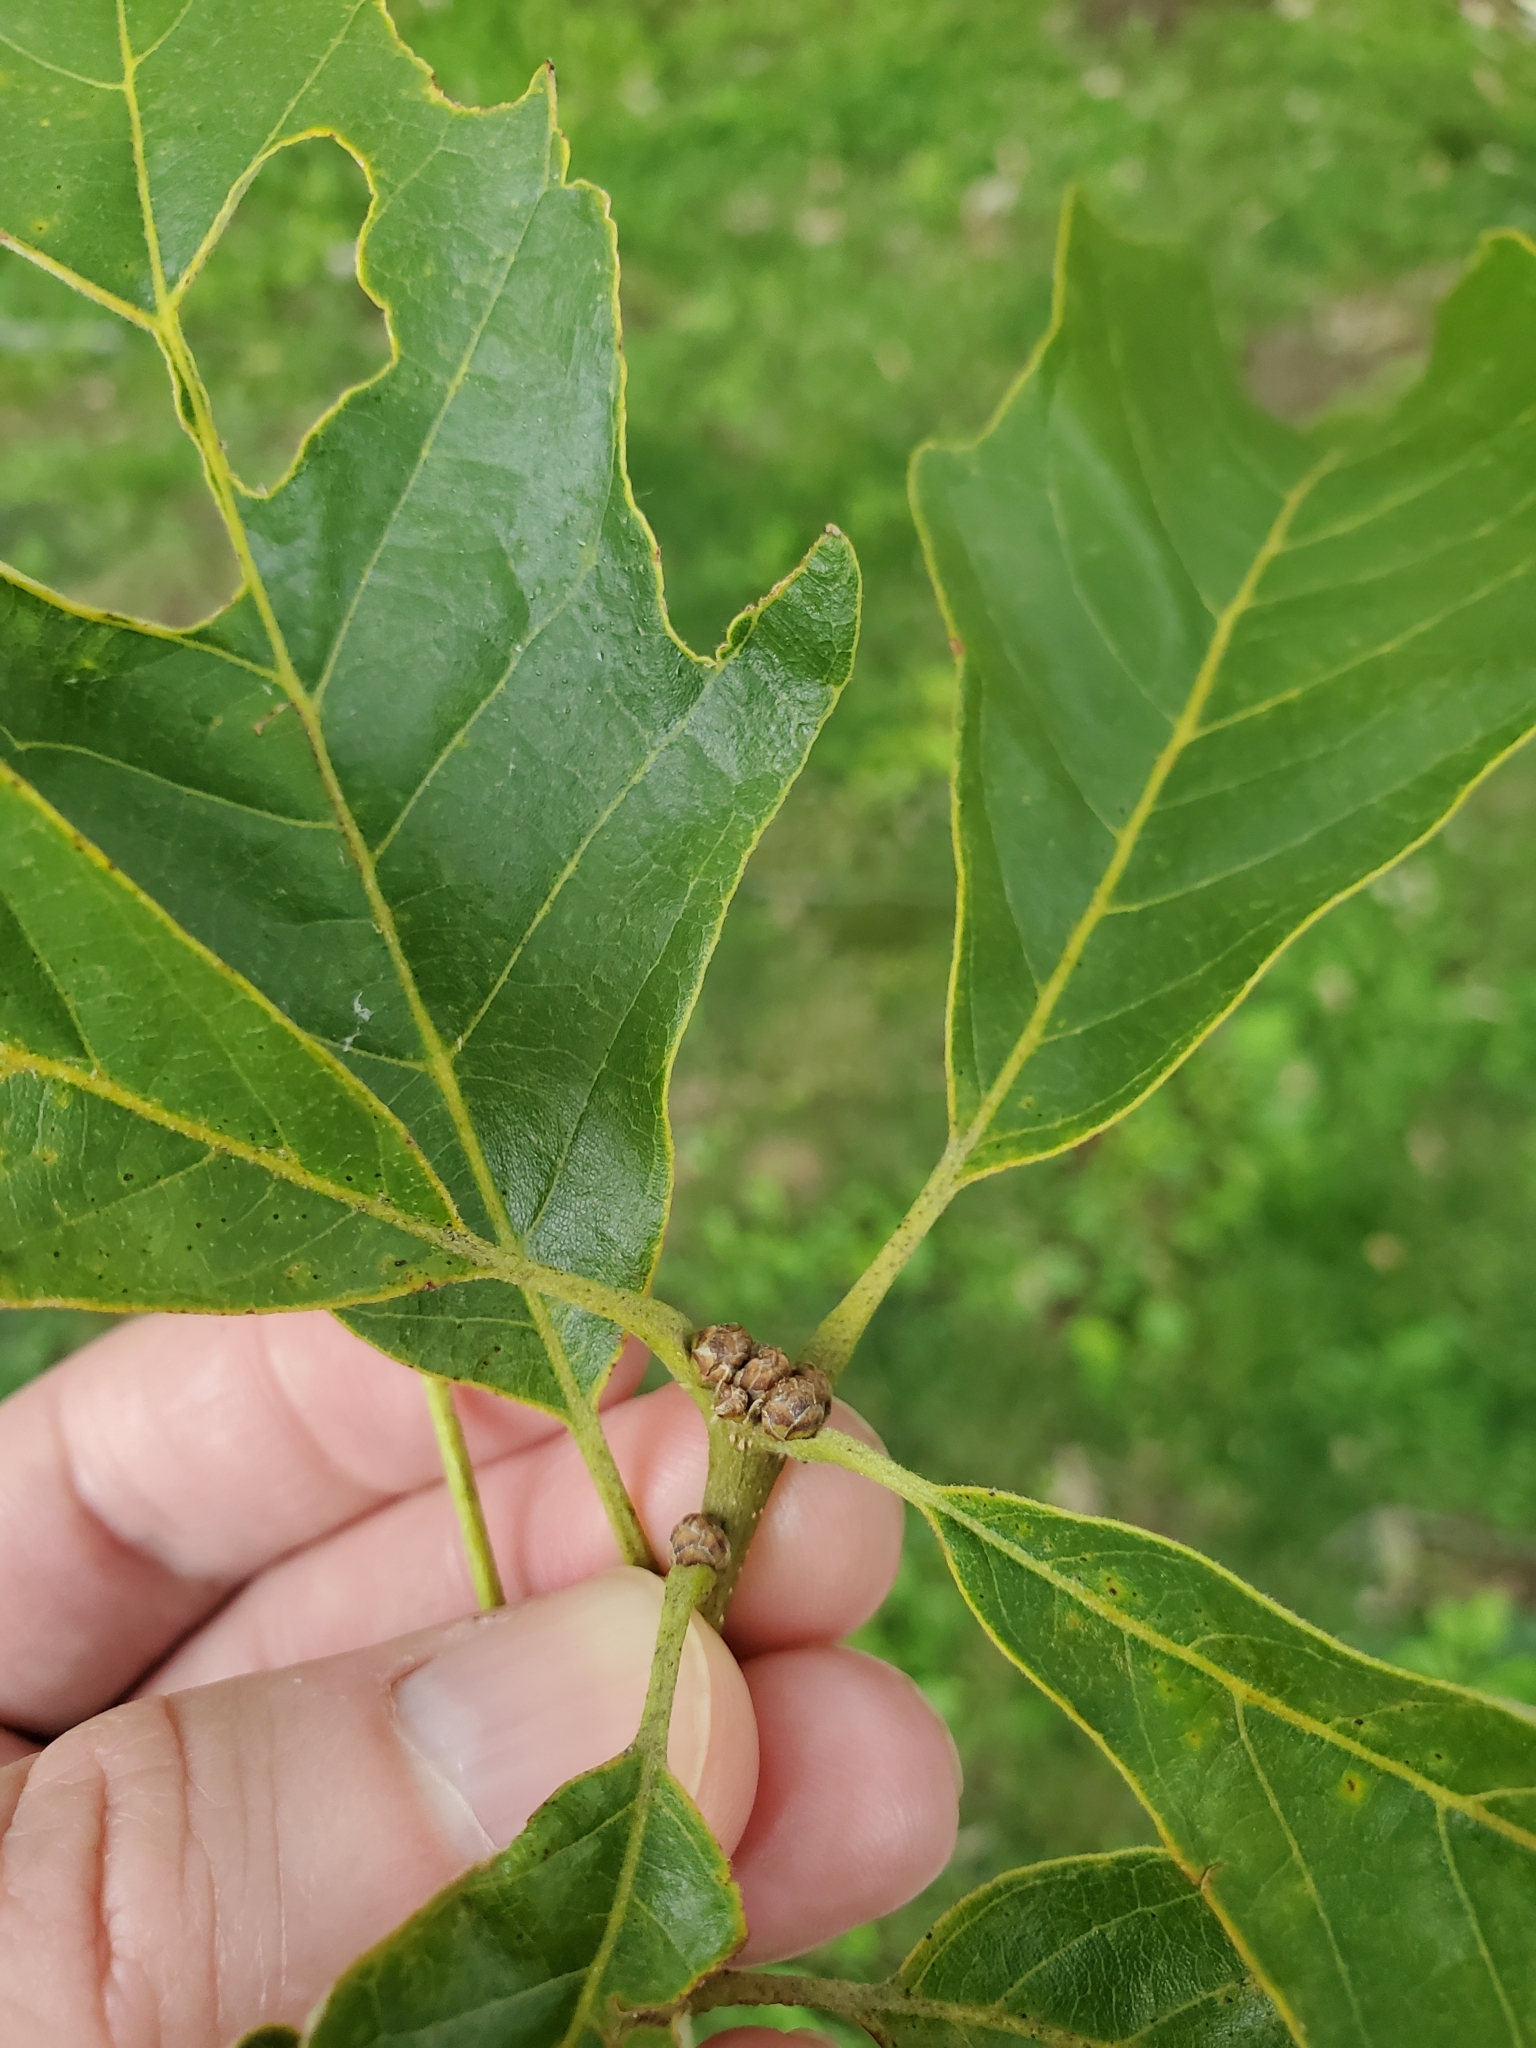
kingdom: Plantae
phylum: Tracheophyta
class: Magnoliopsida
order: Fagales
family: Fagaceae
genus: Quercus
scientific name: Quercus bicolor
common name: Swamp white oak
